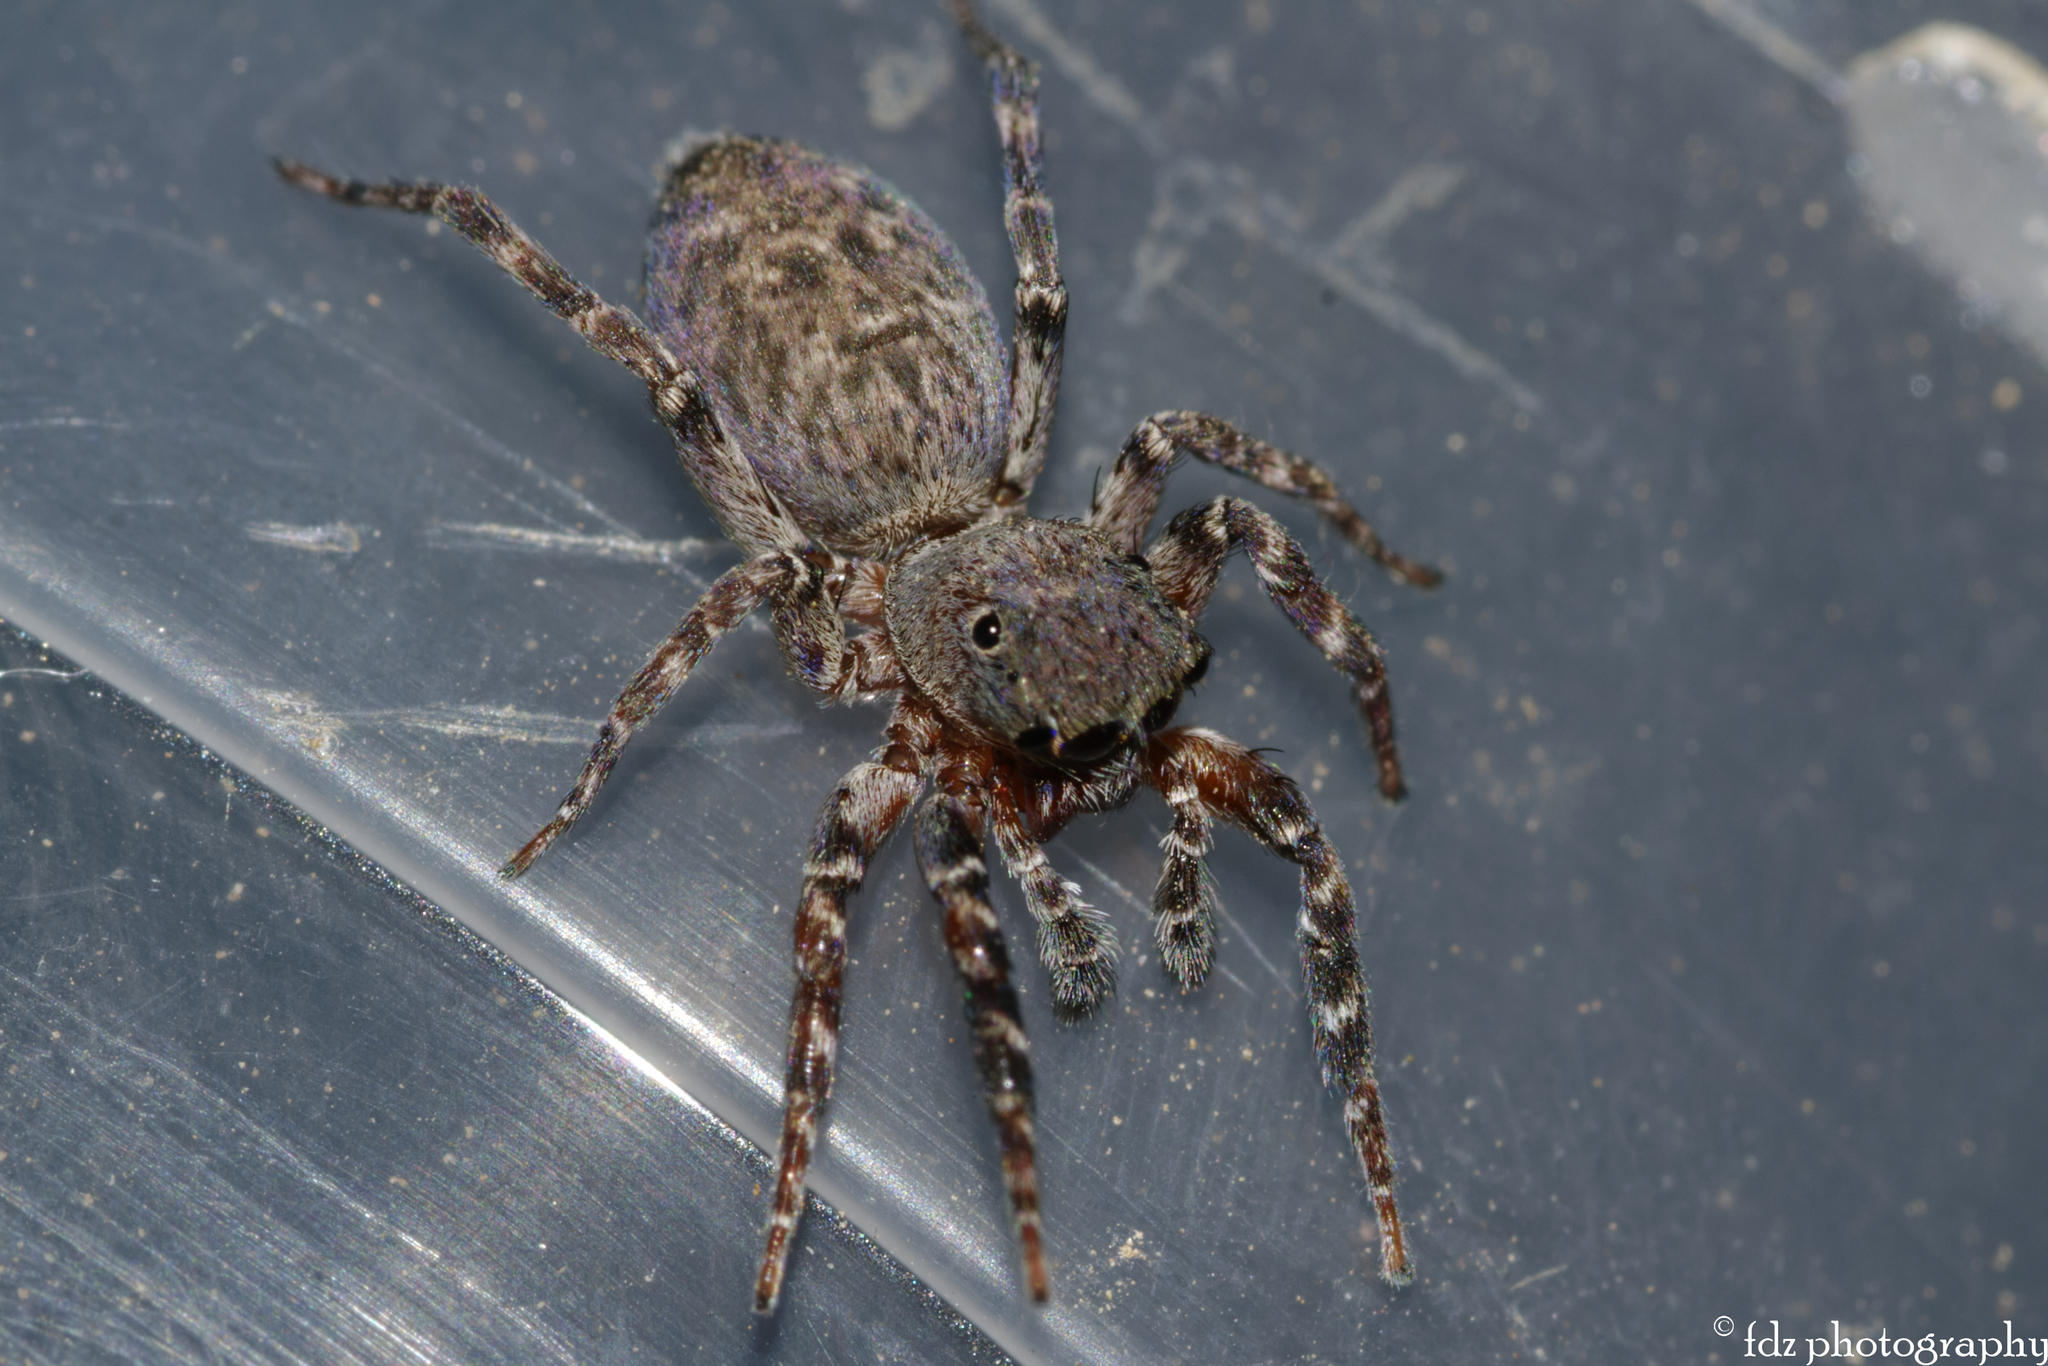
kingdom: Animalia
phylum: Arthropoda
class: Arachnida
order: Araneae
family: Salticidae
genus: Cyrba
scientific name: Cyrba algerina
